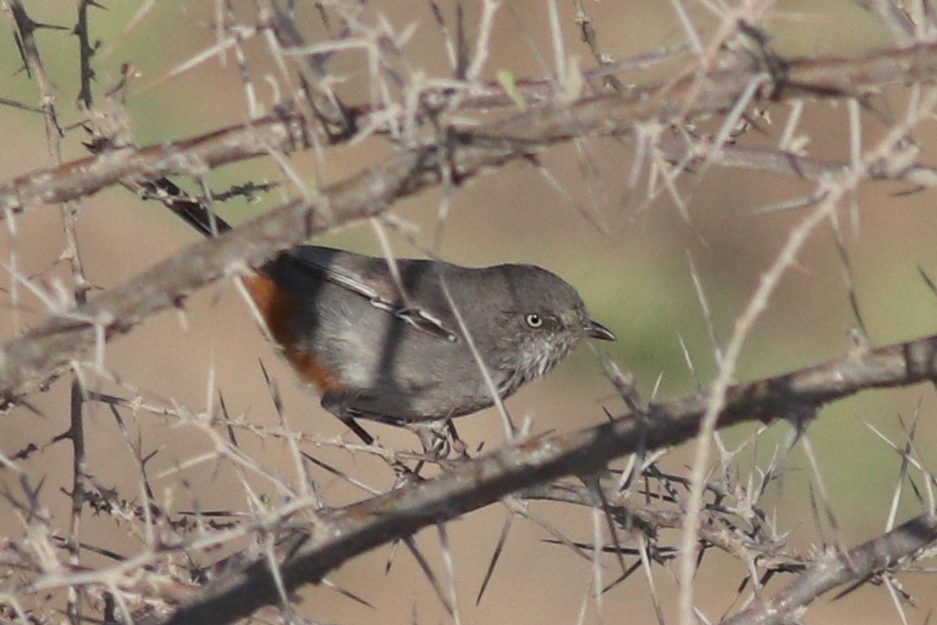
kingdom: Animalia
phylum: Chordata
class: Aves
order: Passeriformes
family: Sylviidae
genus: Curruca
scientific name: Curruca subcoerulea
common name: Chestnut-vented warbler
